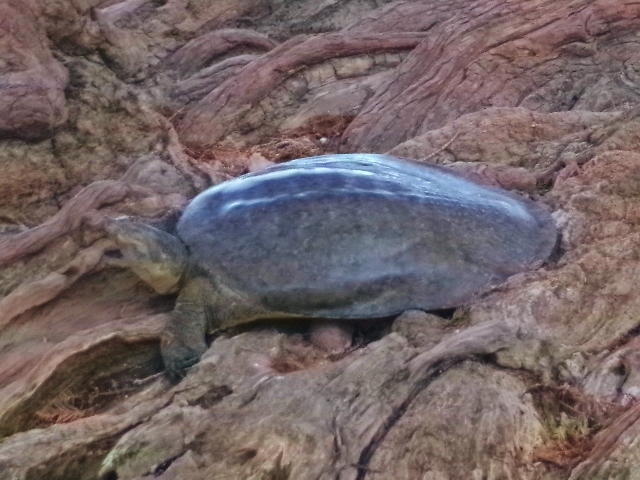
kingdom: Animalia
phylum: Chordata
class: Testudines
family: Trionychidae
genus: Apalone
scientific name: Apalone spinifera
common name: Spiny softshell turtle
